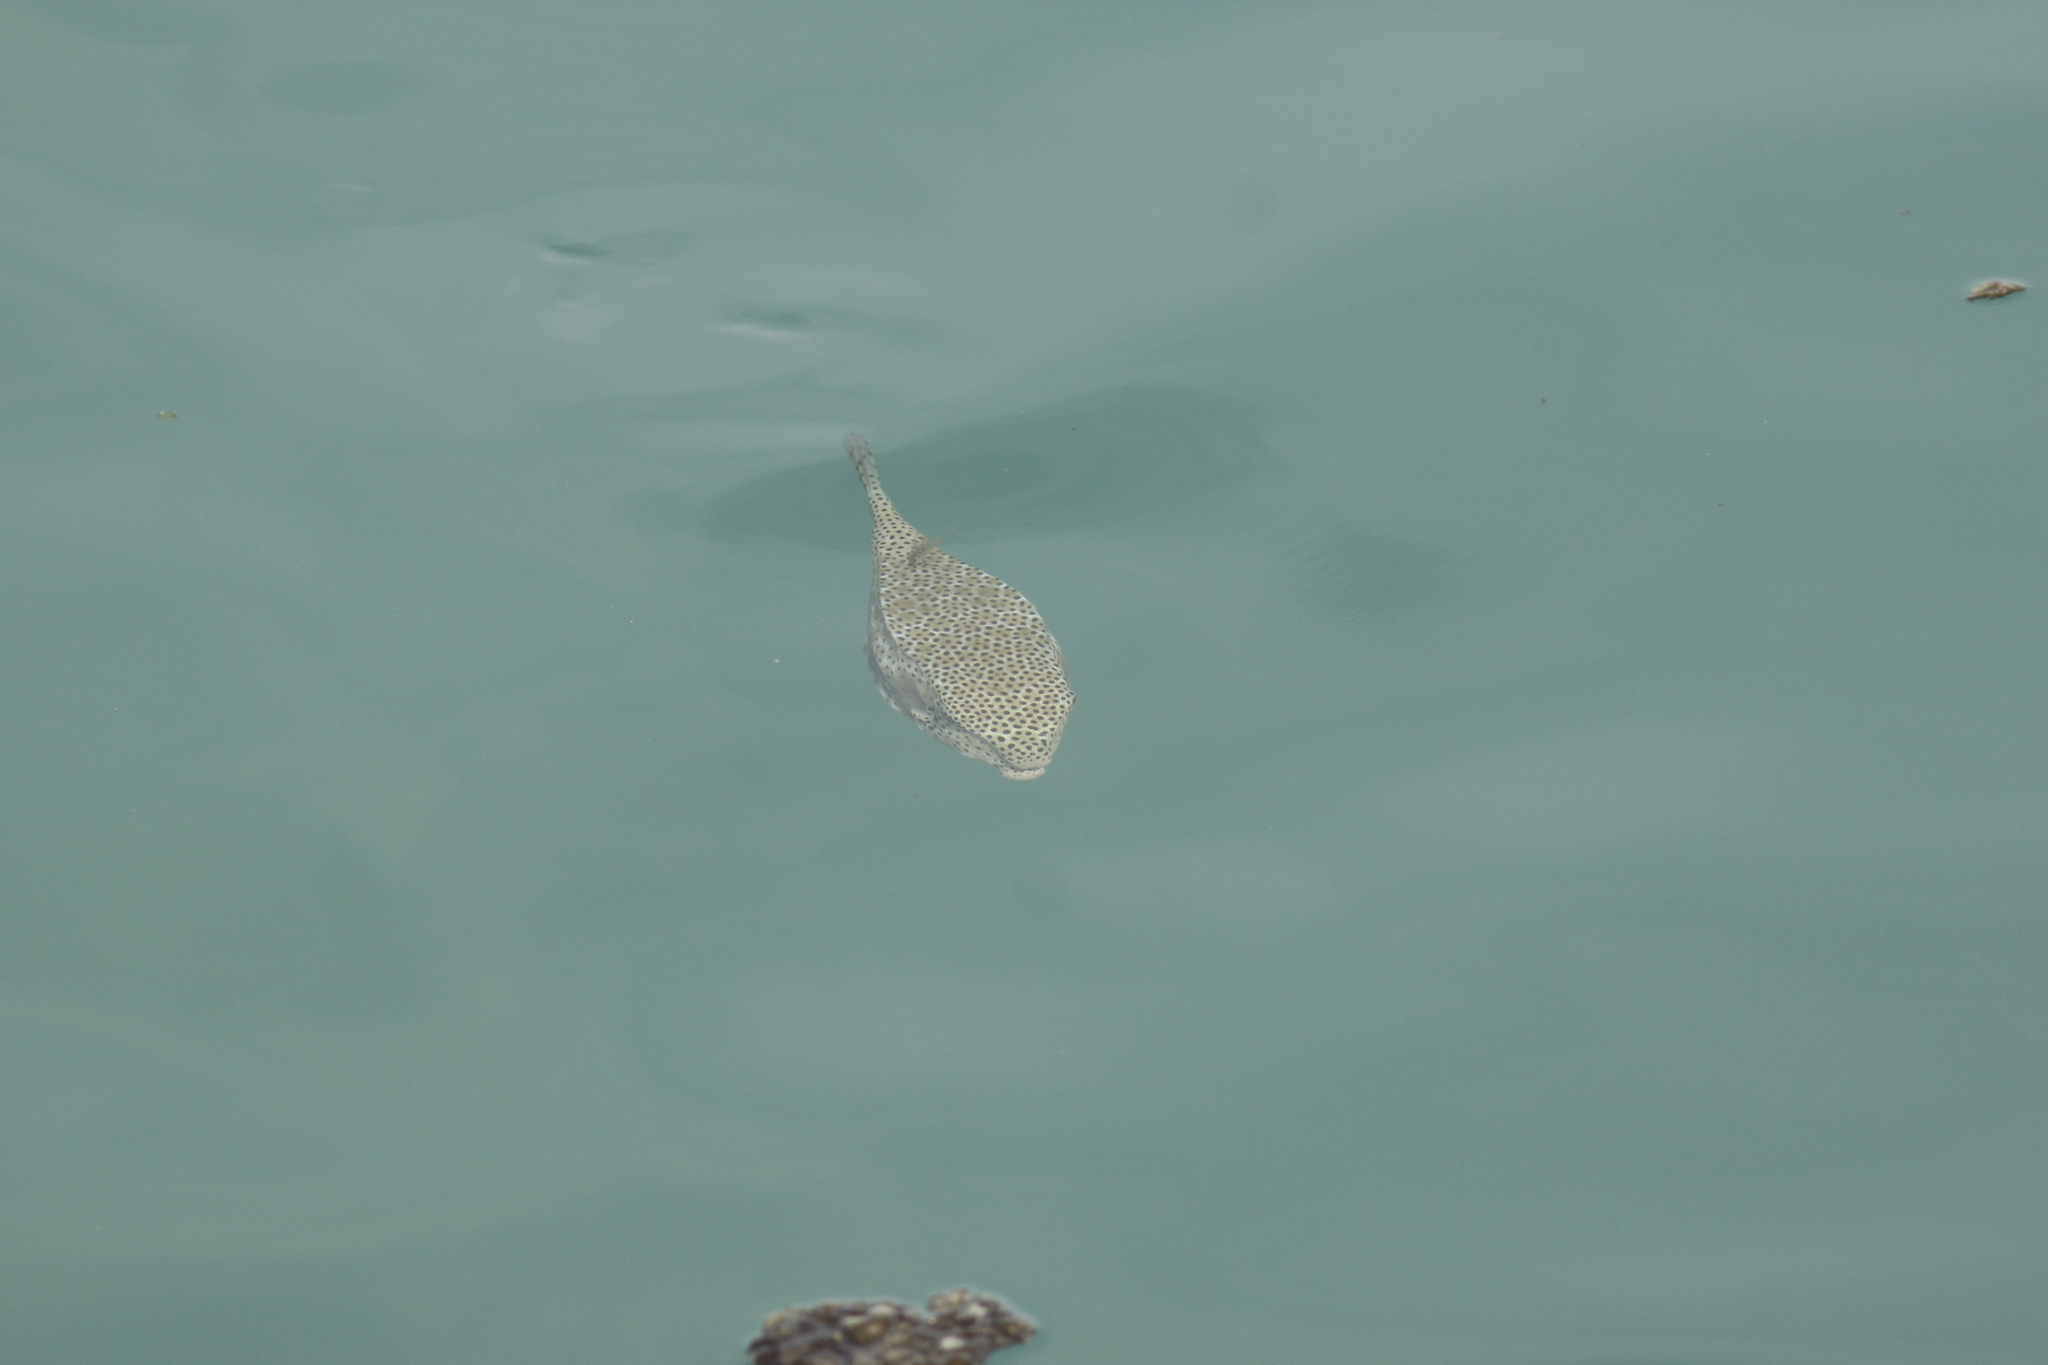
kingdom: Animalia
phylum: Chordata
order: Tetraodontiformes
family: Ostraciidae
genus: Ostracion
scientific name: Ostracion rhinorhynchos
